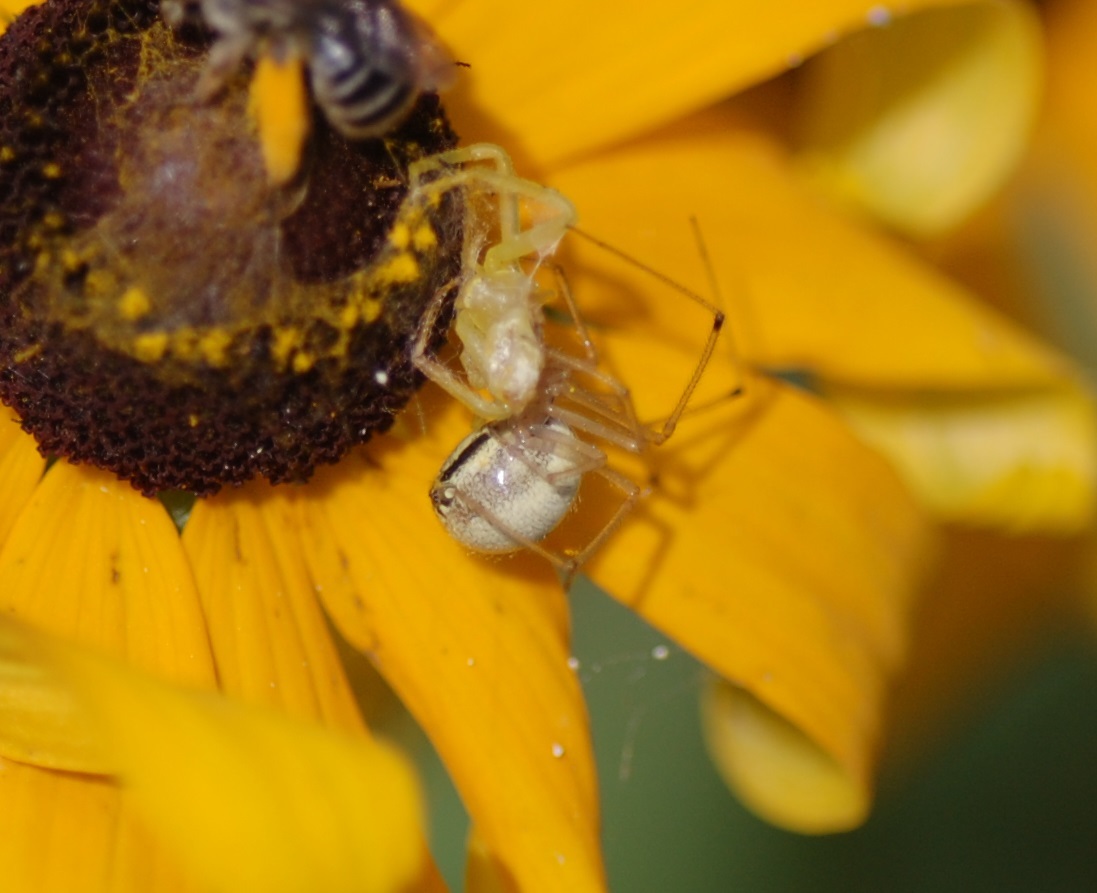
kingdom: Animalia
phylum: Arthropoda
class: Arachnida
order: Araneae
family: Theridiidae
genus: Enoplognatha
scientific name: Enoplognatha ovata
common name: Common candy-striped spider
